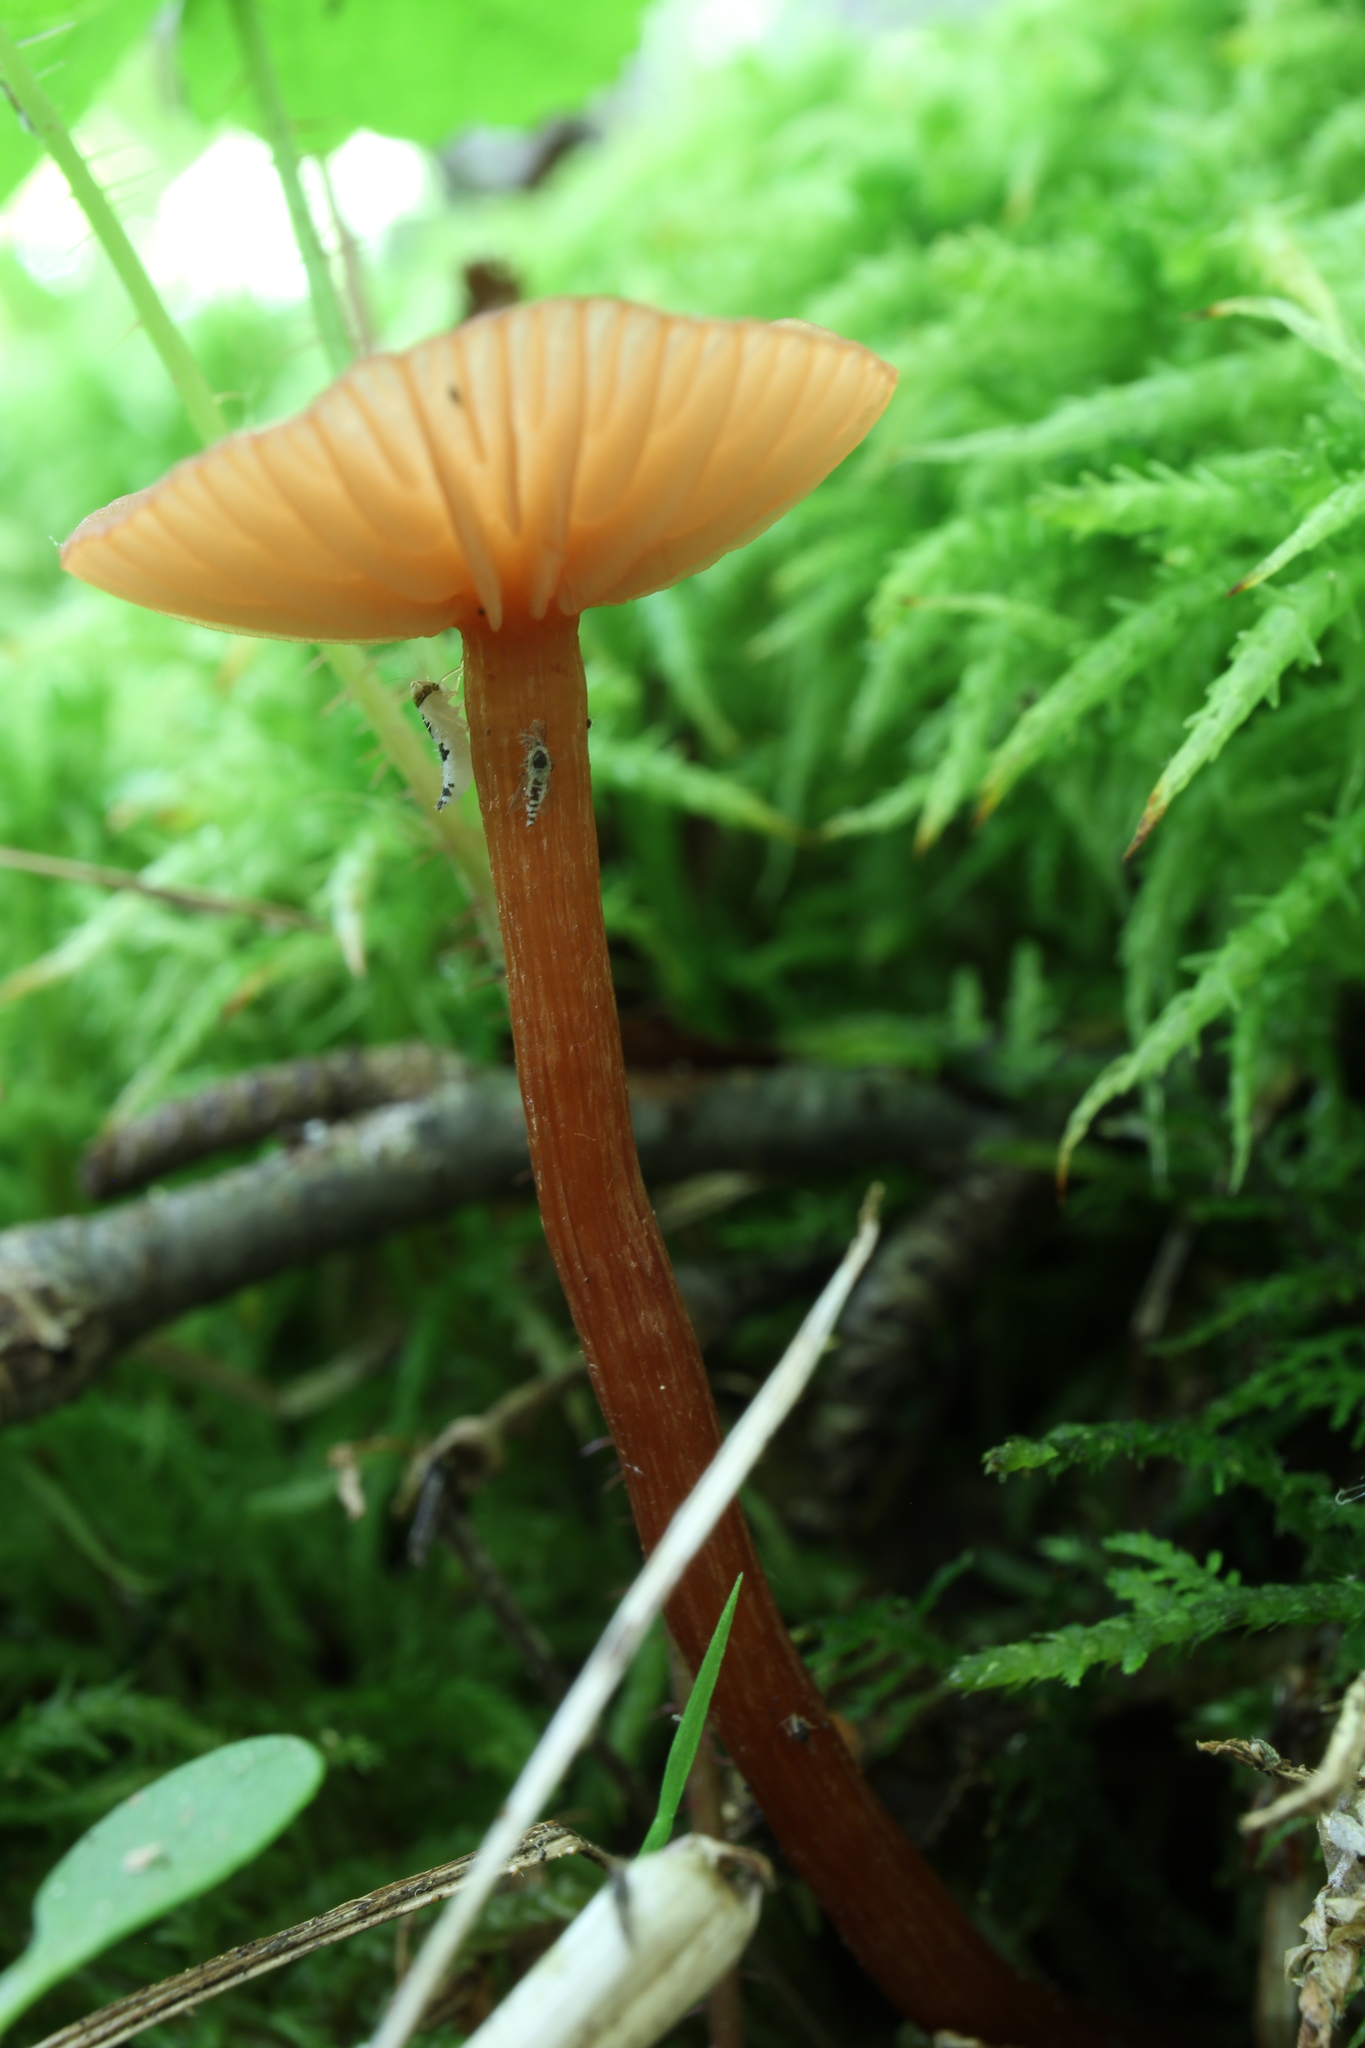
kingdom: Fungi
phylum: Basidiomycota
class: Agaricomycetes
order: Agaricales
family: Hydnangiaceae
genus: Laccaria
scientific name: Laccaria laccata
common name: Deceiver
